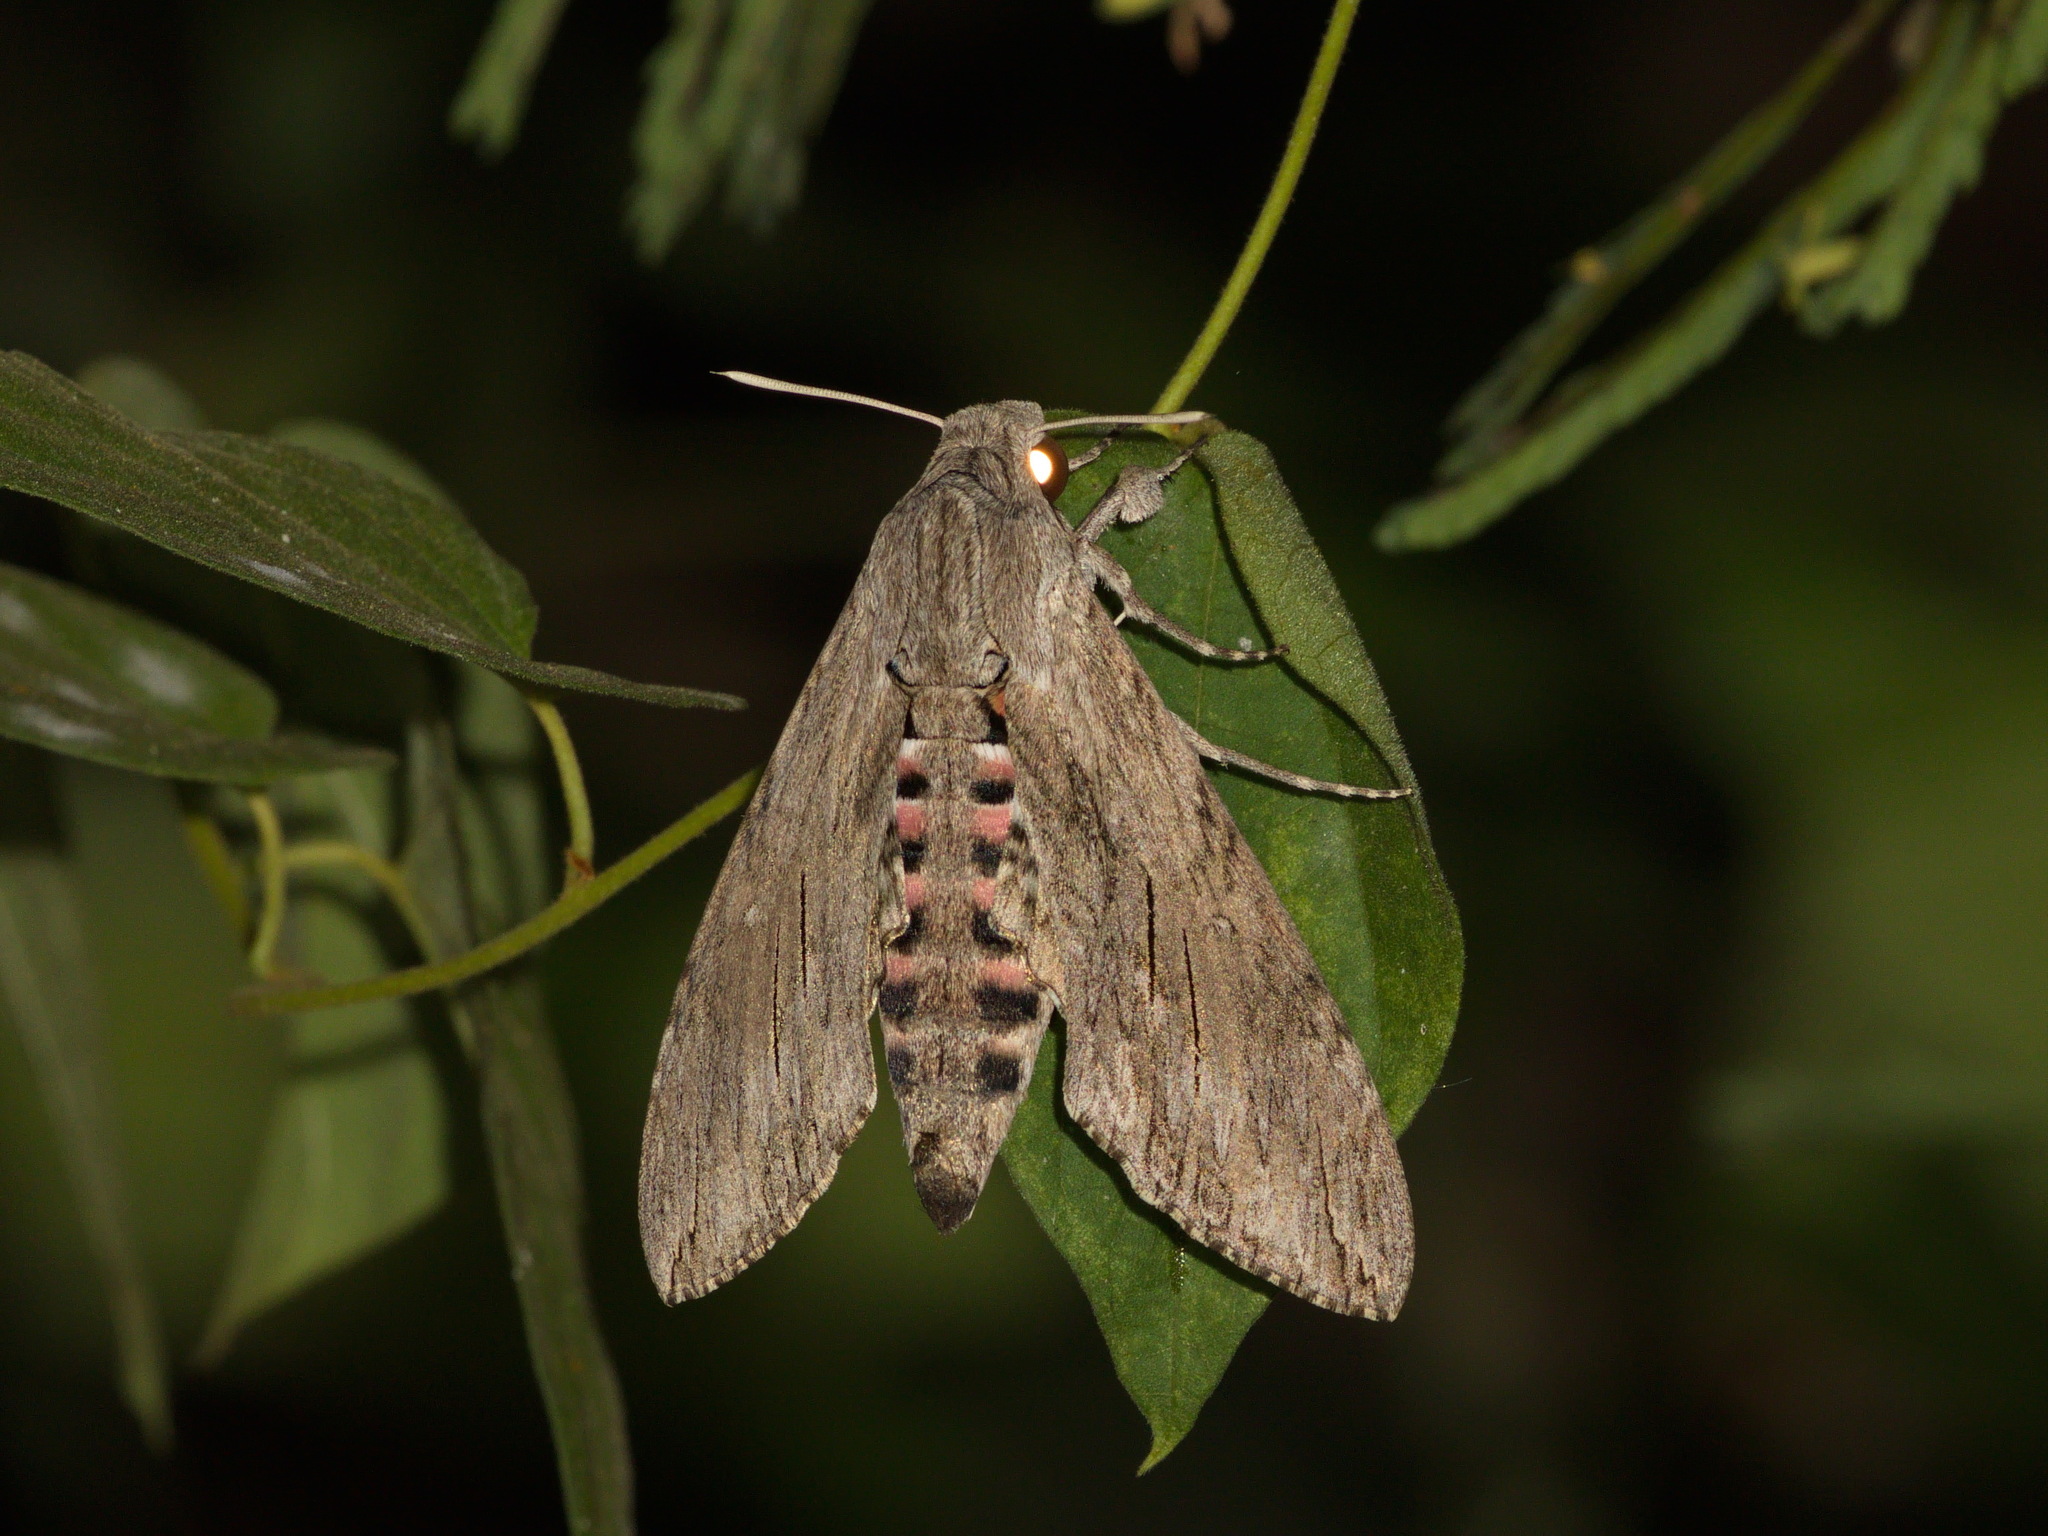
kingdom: Animalia
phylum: Arthropoda
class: Insecta
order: Lepidoptera
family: Sphingidae
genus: Agrius
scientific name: Agrius convolvuli
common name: Convolvulus hawkmoth
